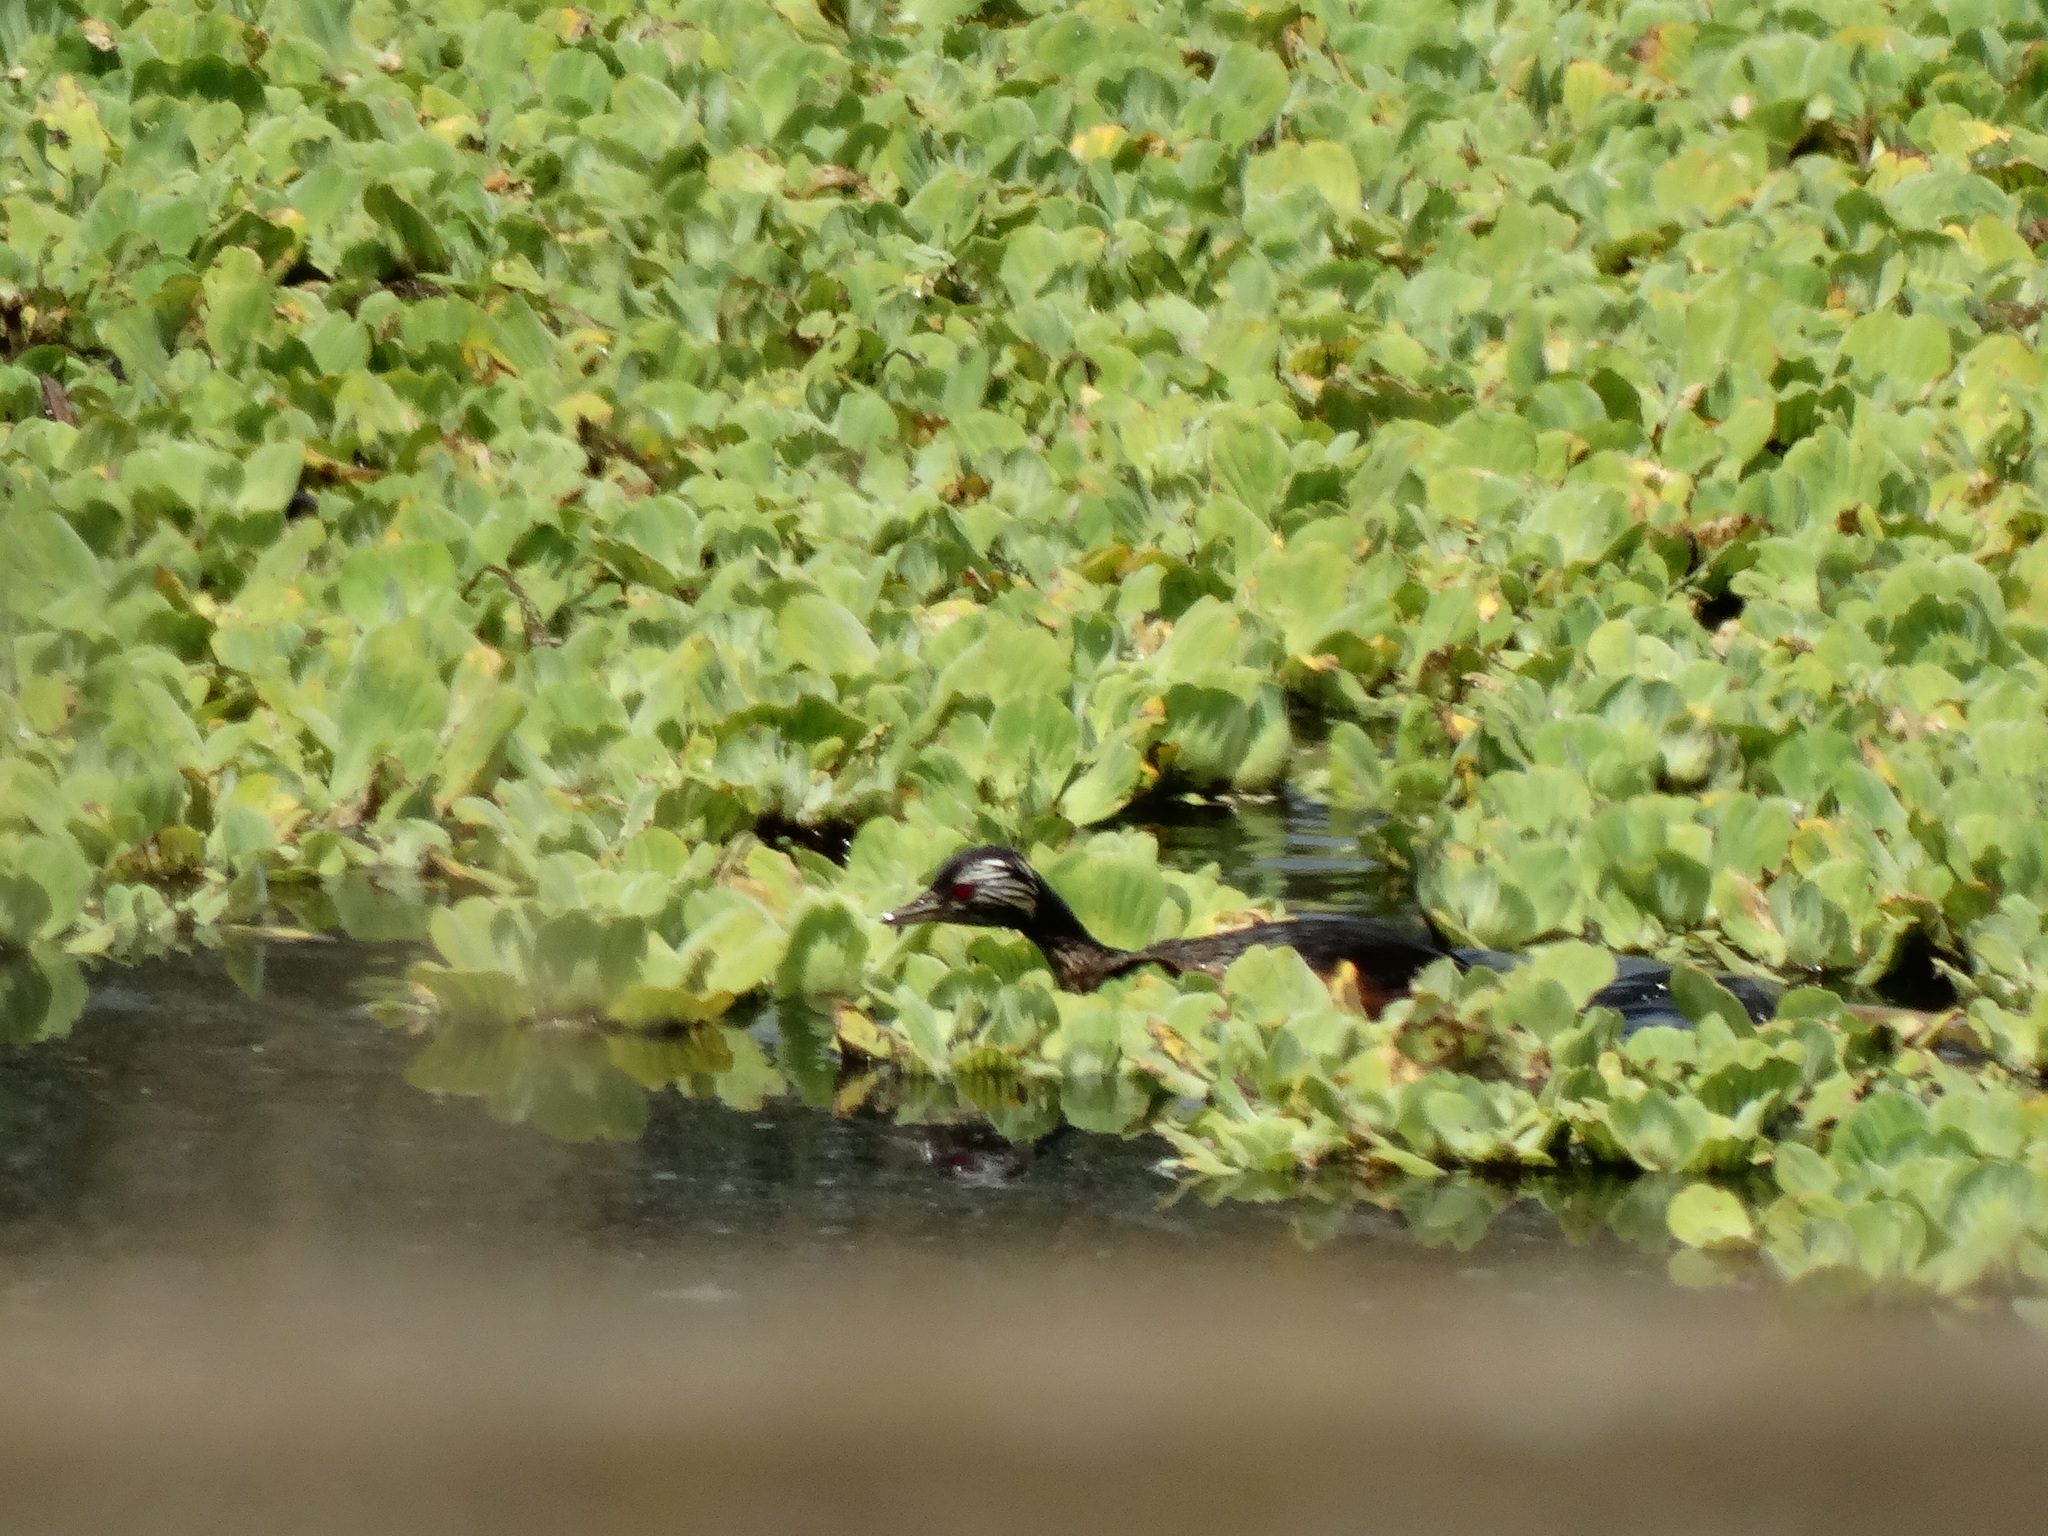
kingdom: Animalia
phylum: Chordata
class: Aves
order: Podicipediformes
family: Podicipedidae
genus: Rollandia
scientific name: Rollandia rolland
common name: White-tufted grebe
